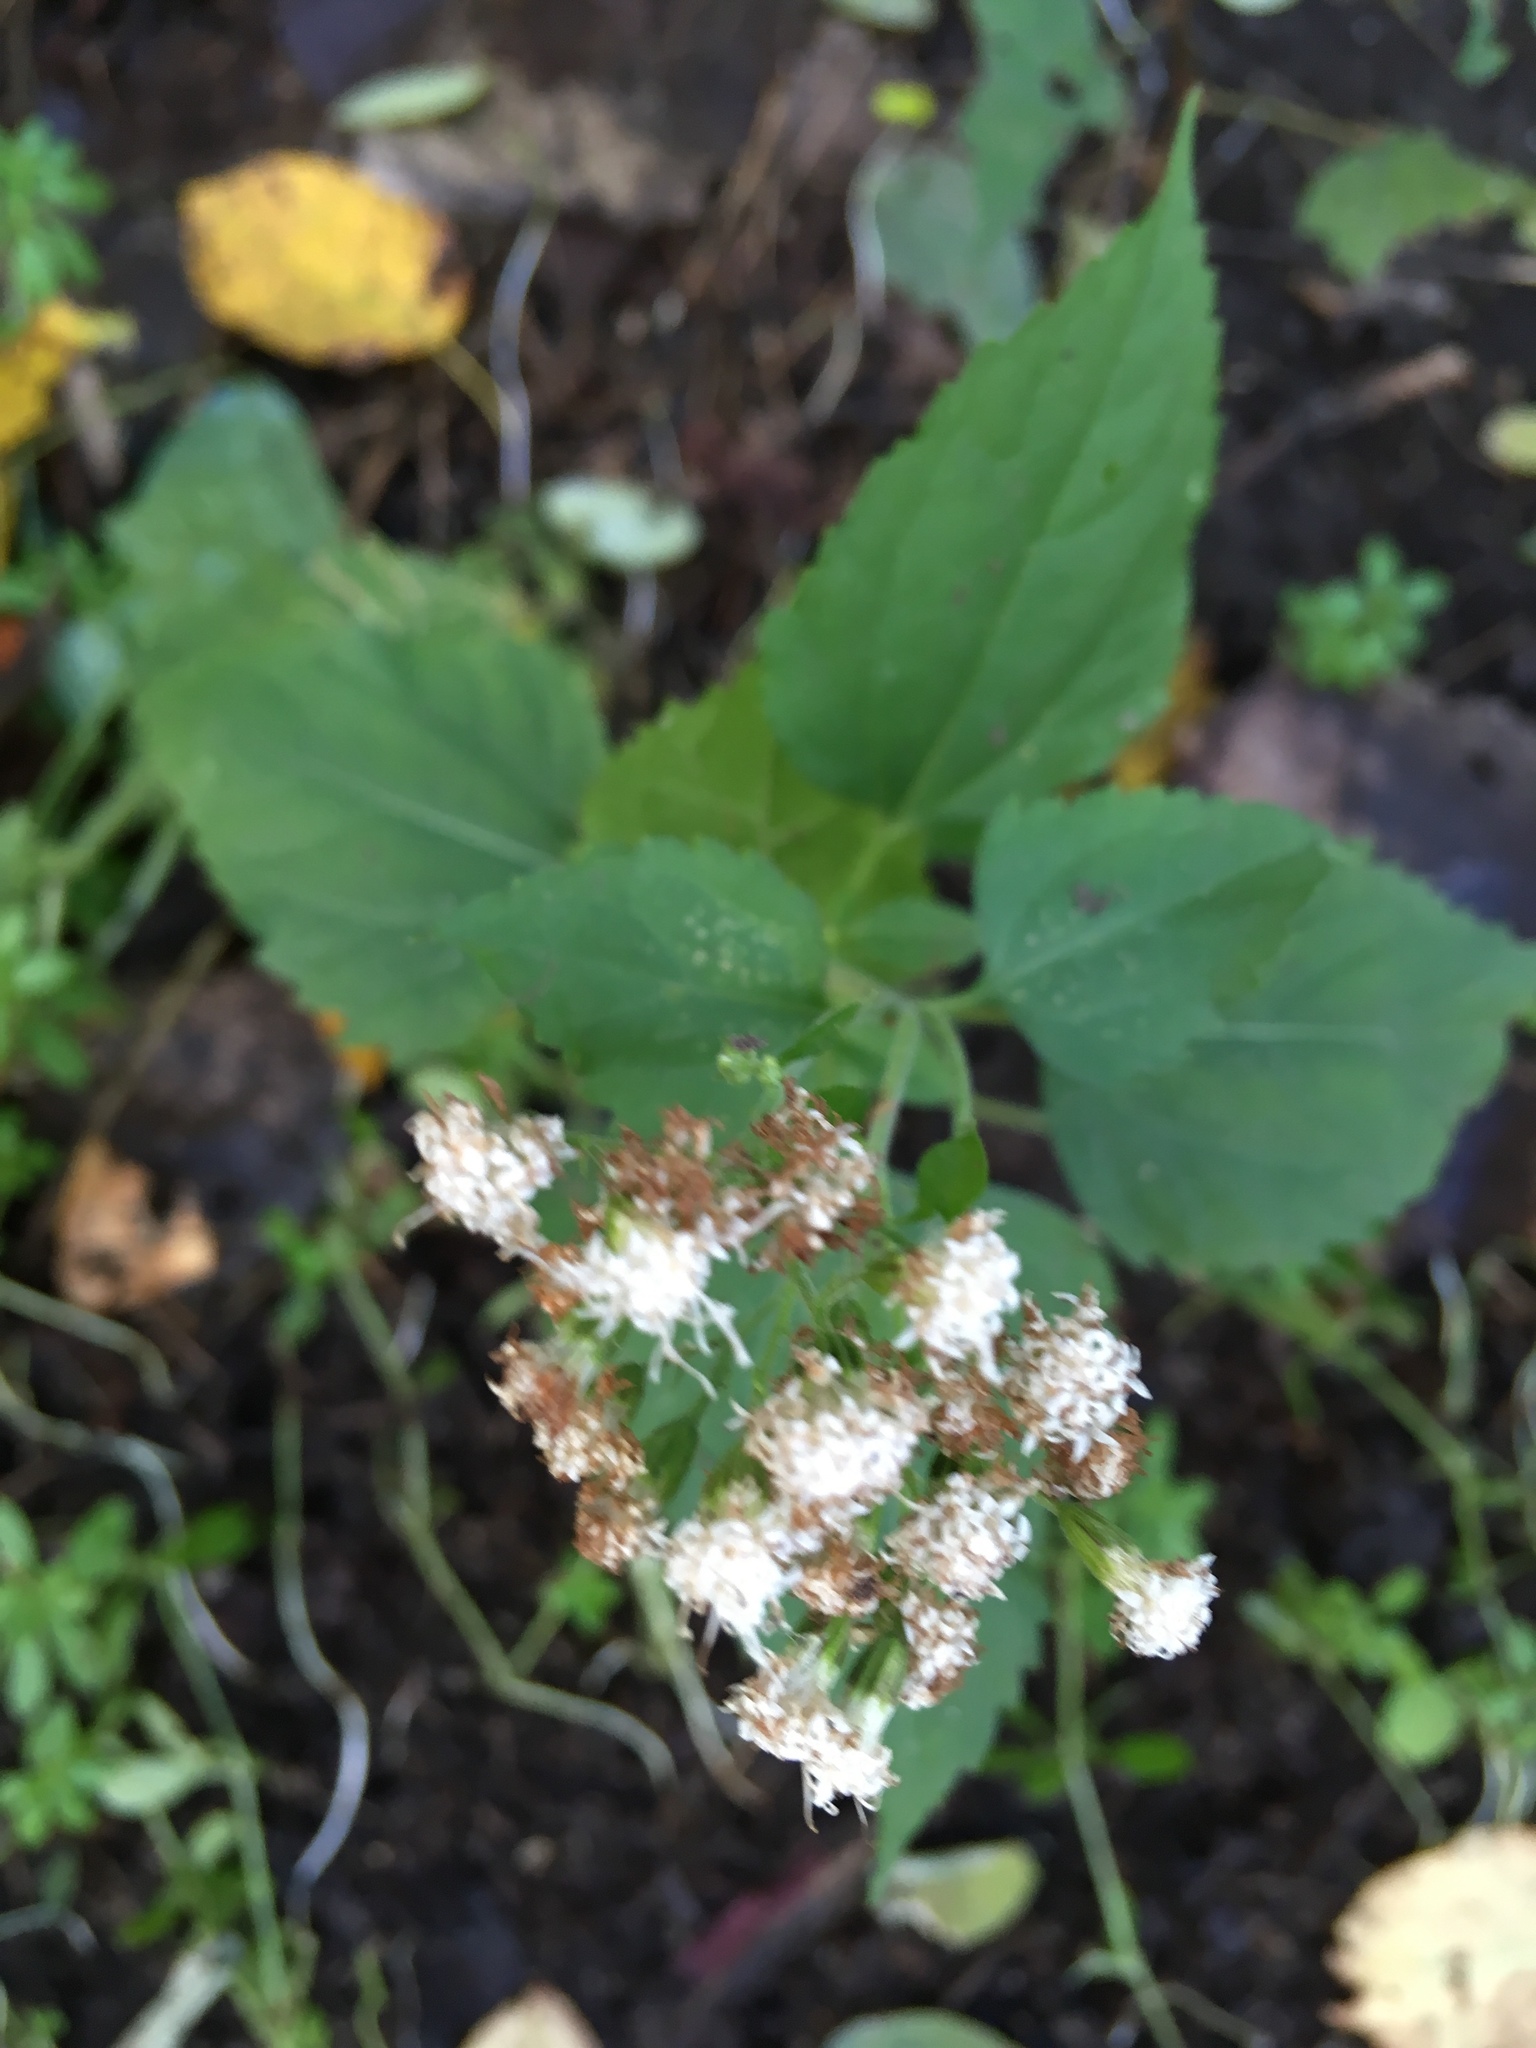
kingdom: Plantae
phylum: Tracheophyta
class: Magnoliopsida
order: Asterales
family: Asteraceae
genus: Ageratina
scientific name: Ageratina altissima
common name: White snakeroot
